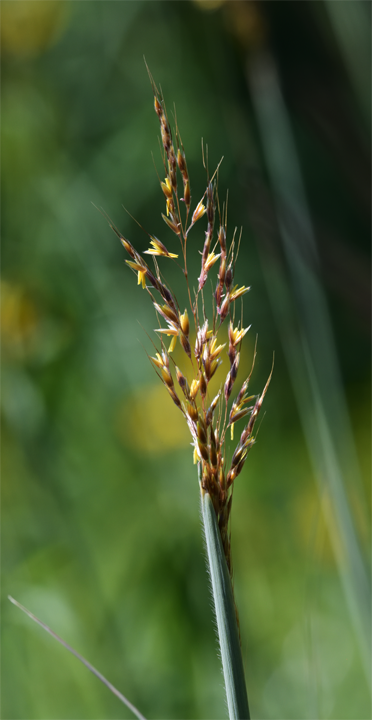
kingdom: Plantae
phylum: Tracheophyta
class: Liliopsida
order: Poales
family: Poaceae
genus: Sorghastrum
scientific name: Sorghastrum nutans
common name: Indian grass
